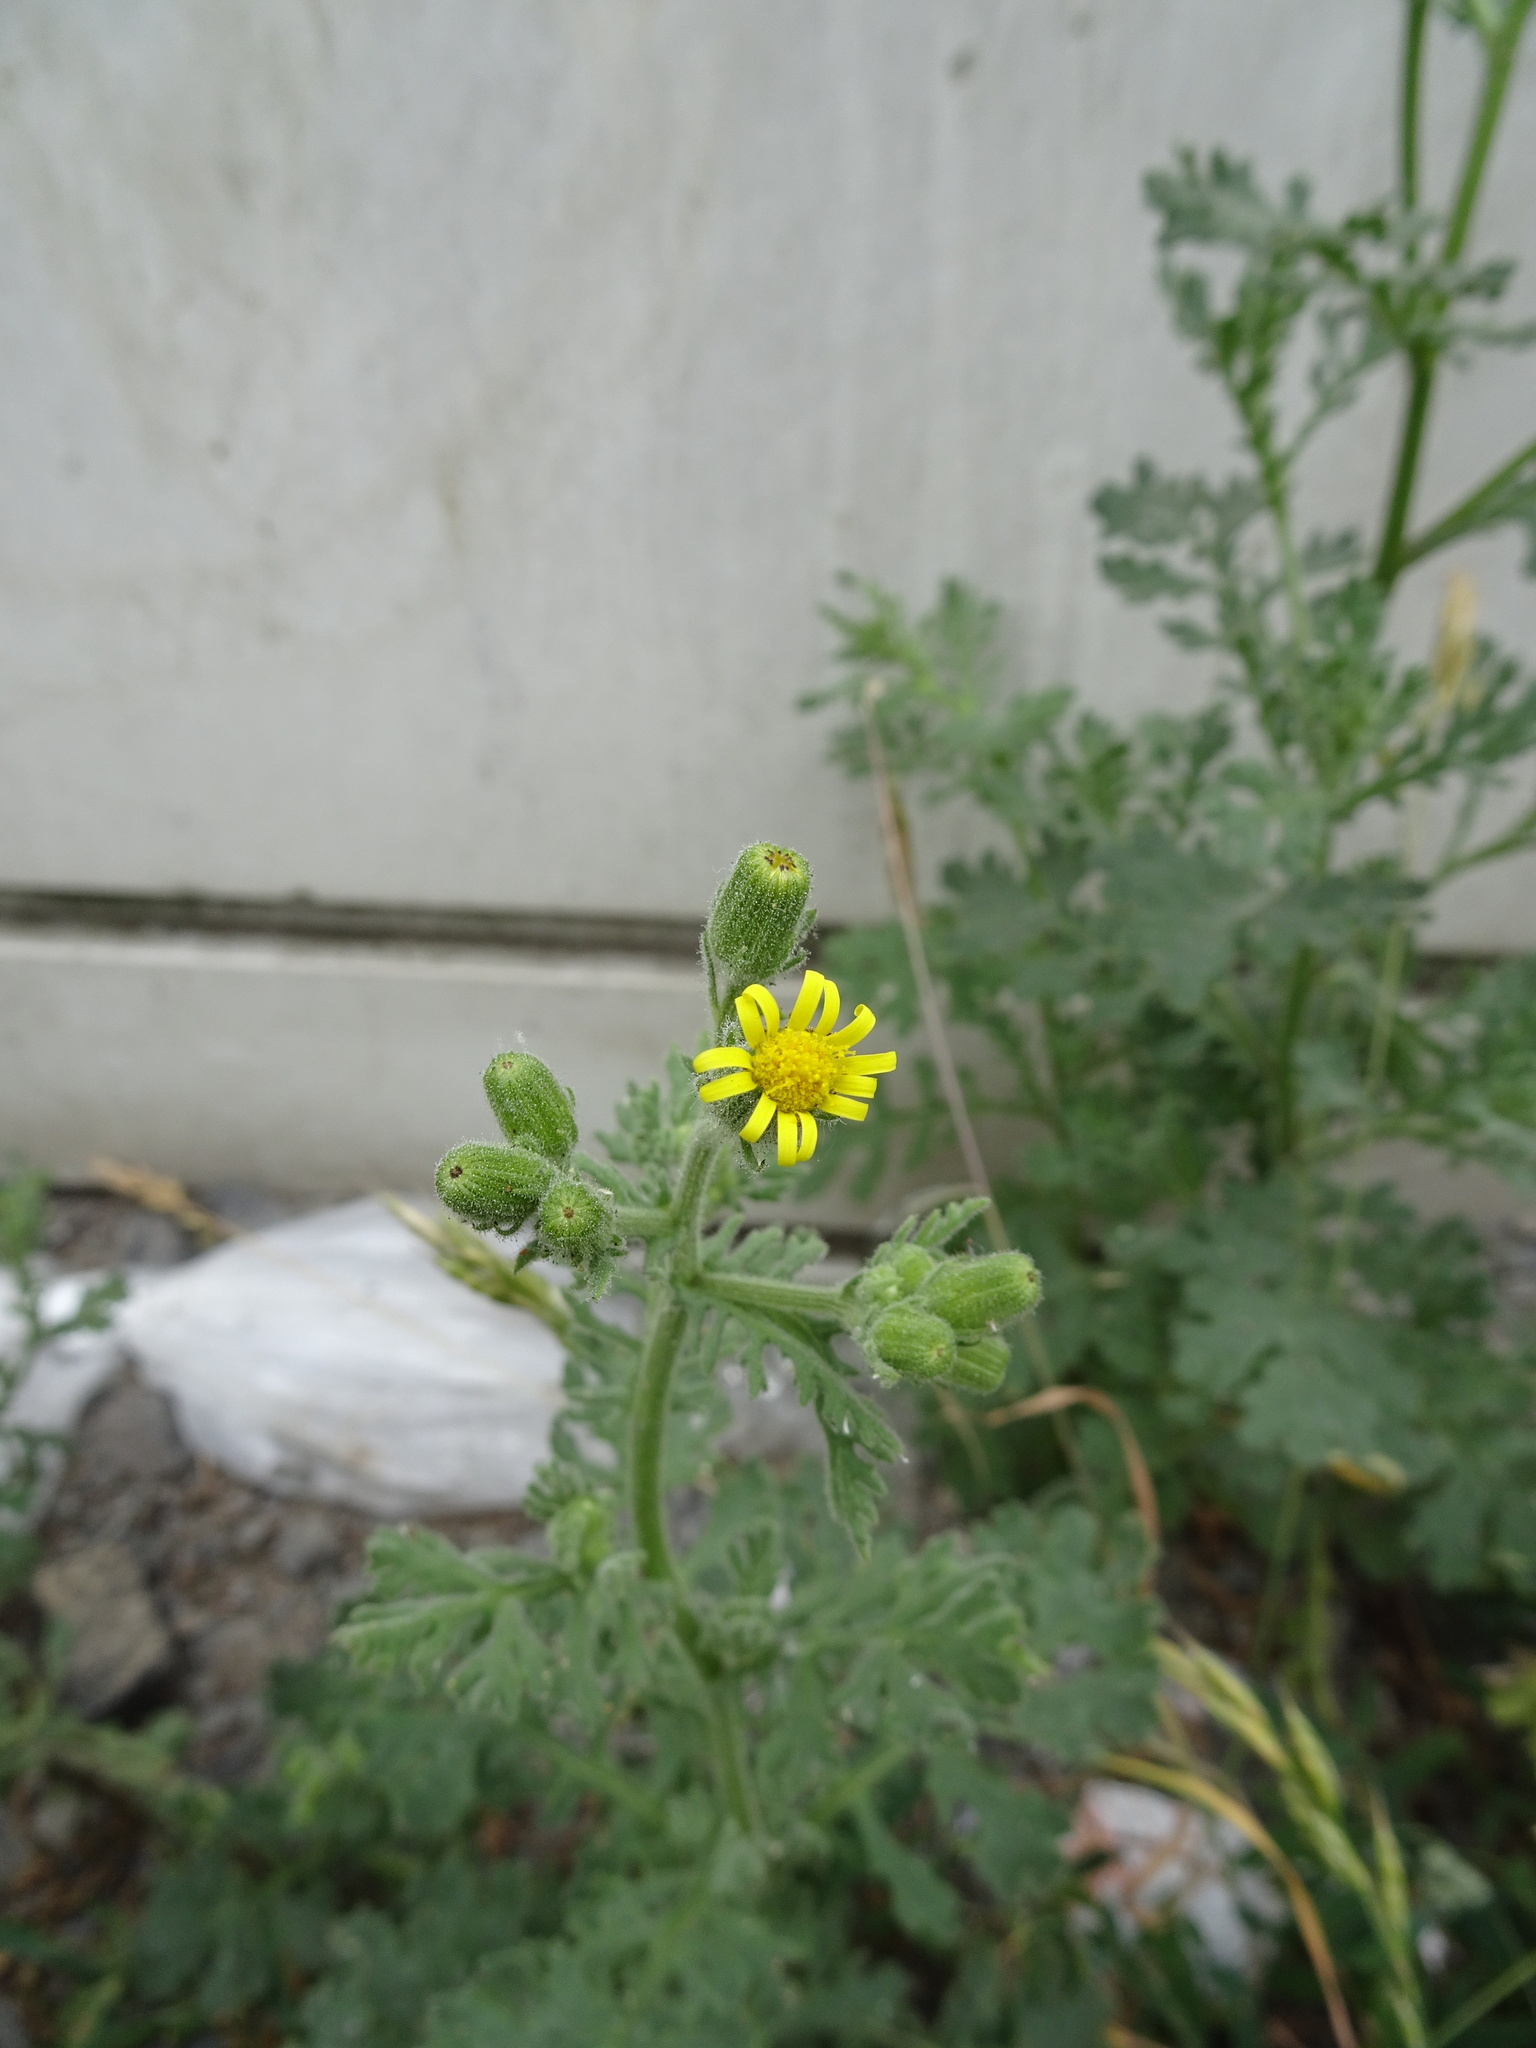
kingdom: Plantae
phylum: Tracheophyta
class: Magnoliopsida
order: Asterales
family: Asteraceae
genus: Senecio
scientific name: Senecio viscosus
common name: Sticky groundsel
